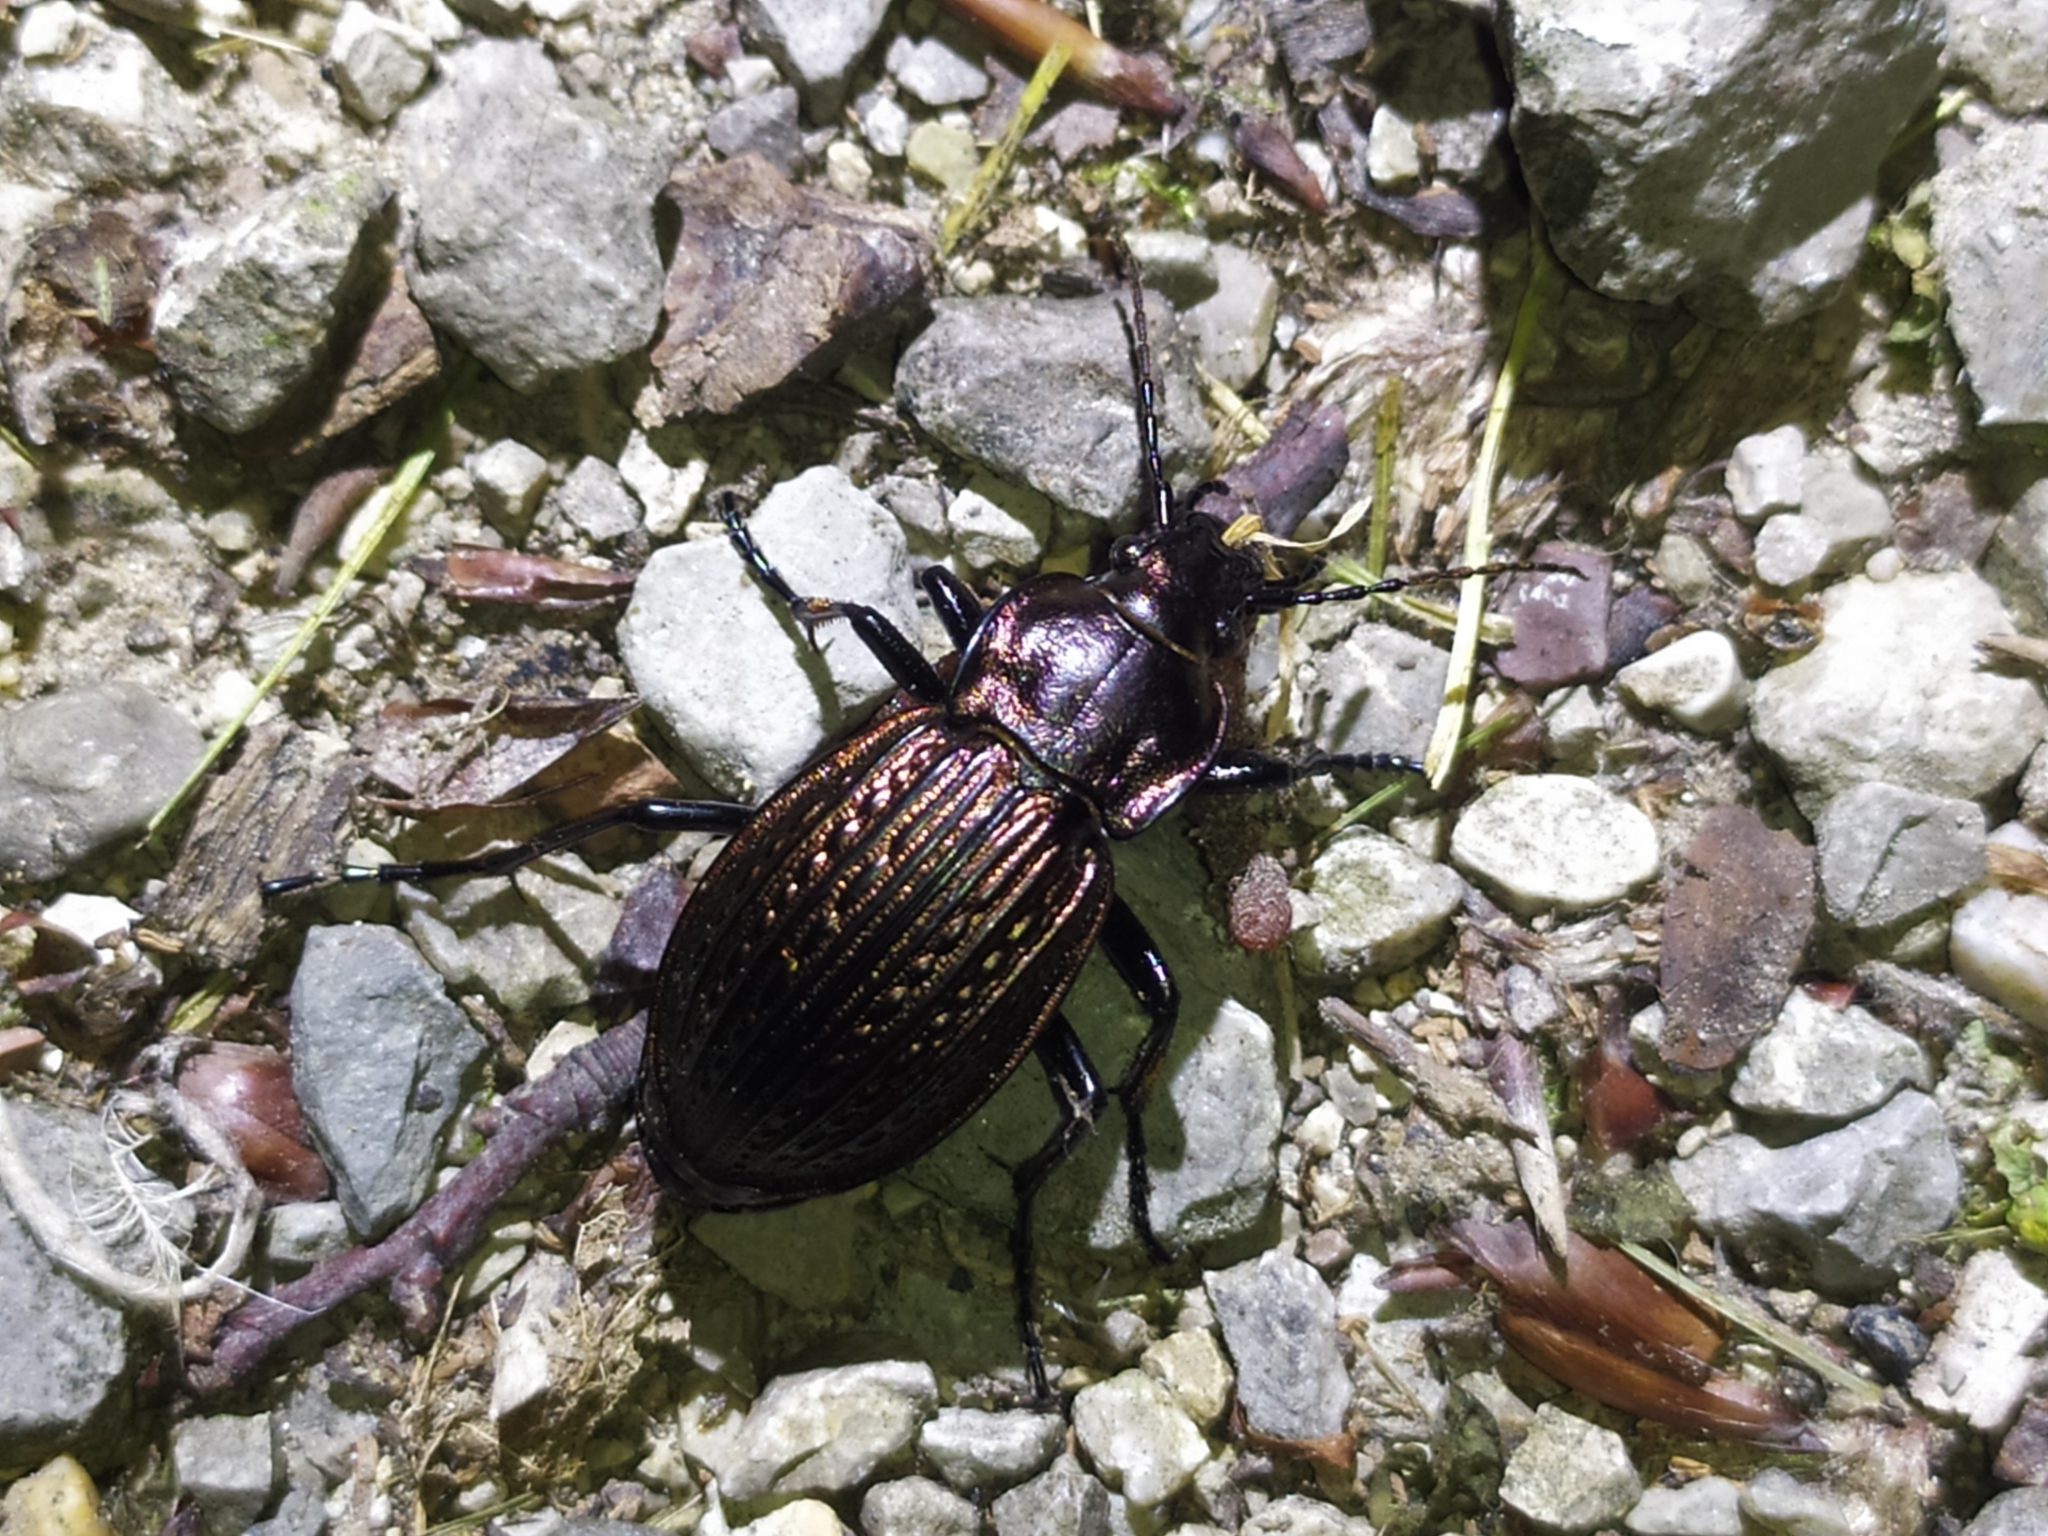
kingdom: Animalia
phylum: Arthropoda
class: Insecta
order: Coleoptera
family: Carabidae
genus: Carabus
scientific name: Carabus ulrichii
